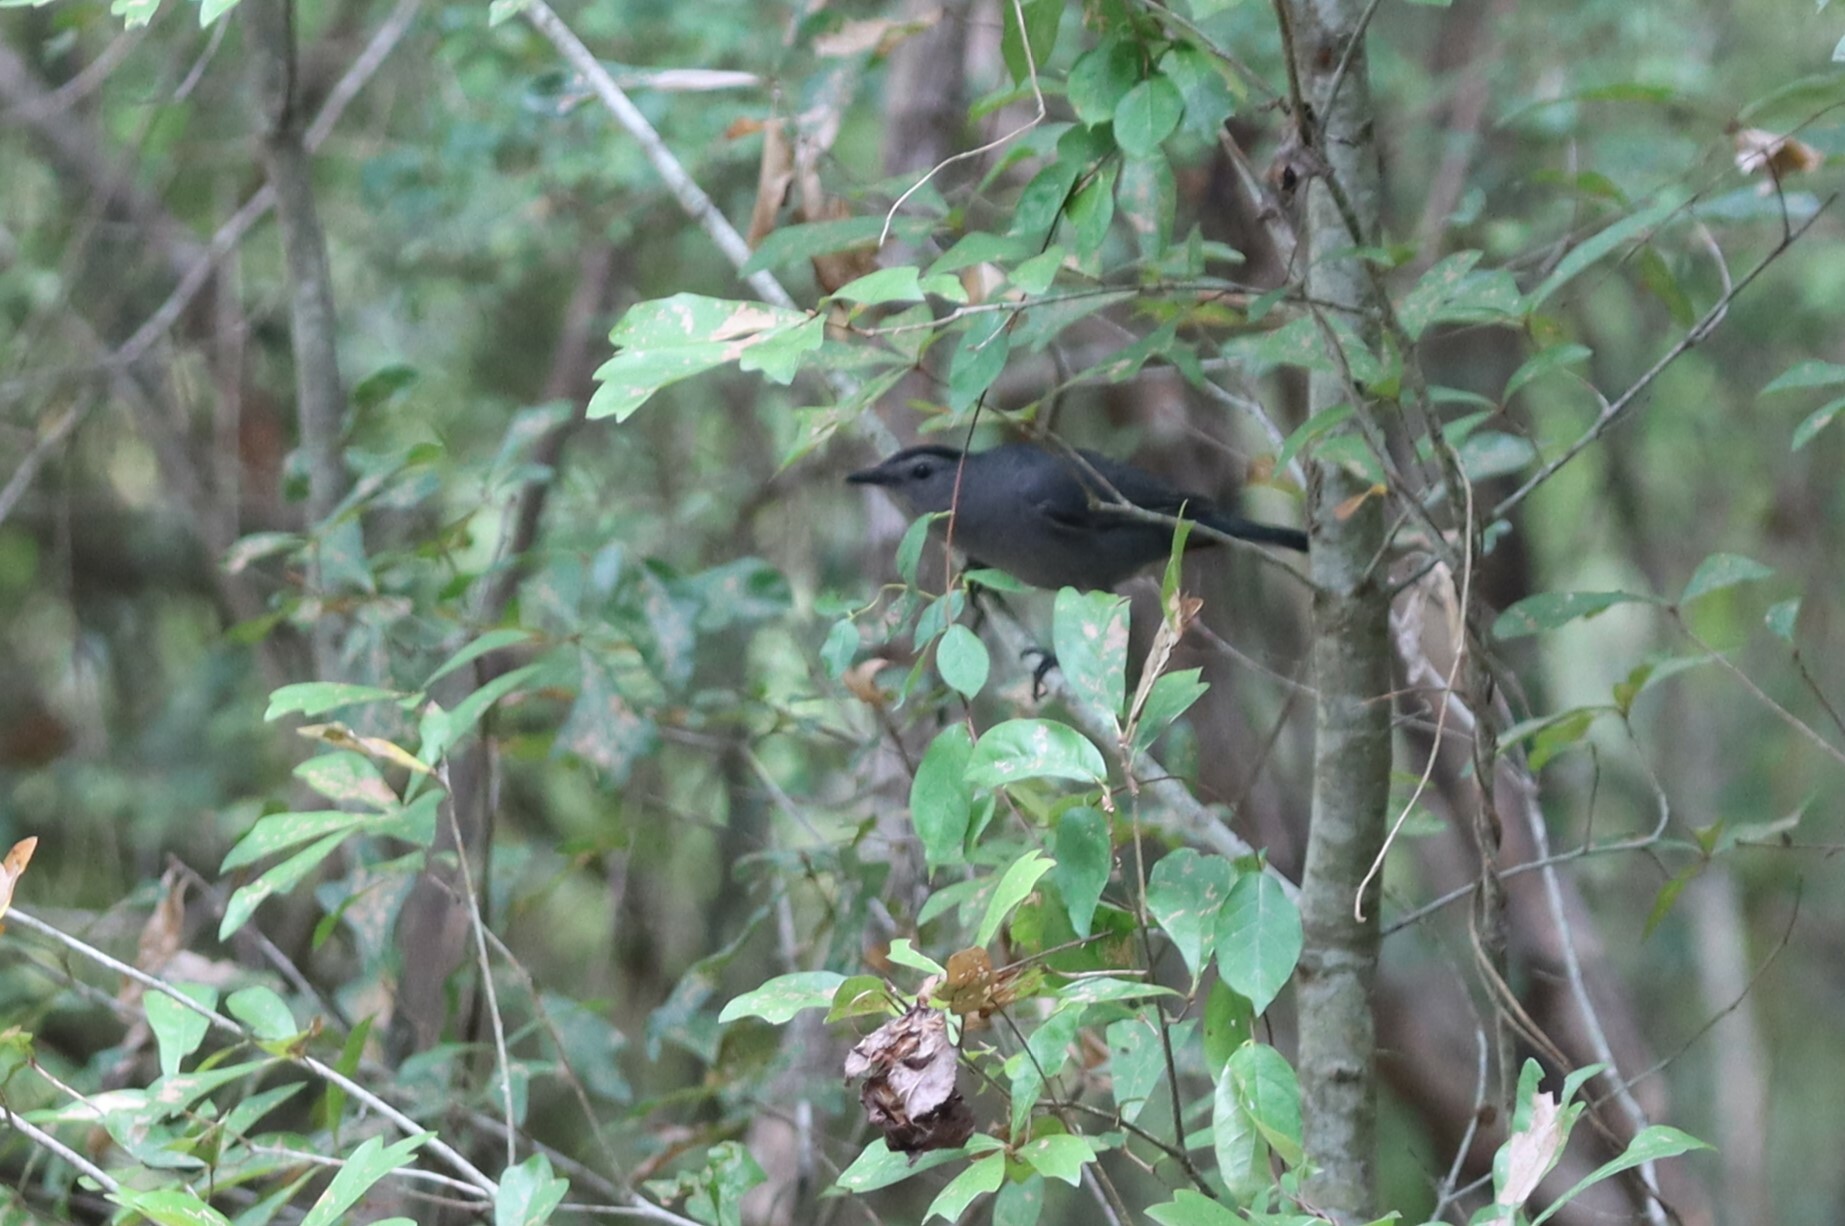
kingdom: Animalia
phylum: Chordata
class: Aves
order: Passeriformes
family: Mimidae
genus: Dumetella
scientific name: Dumetella carolinensis
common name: Gray catbird
